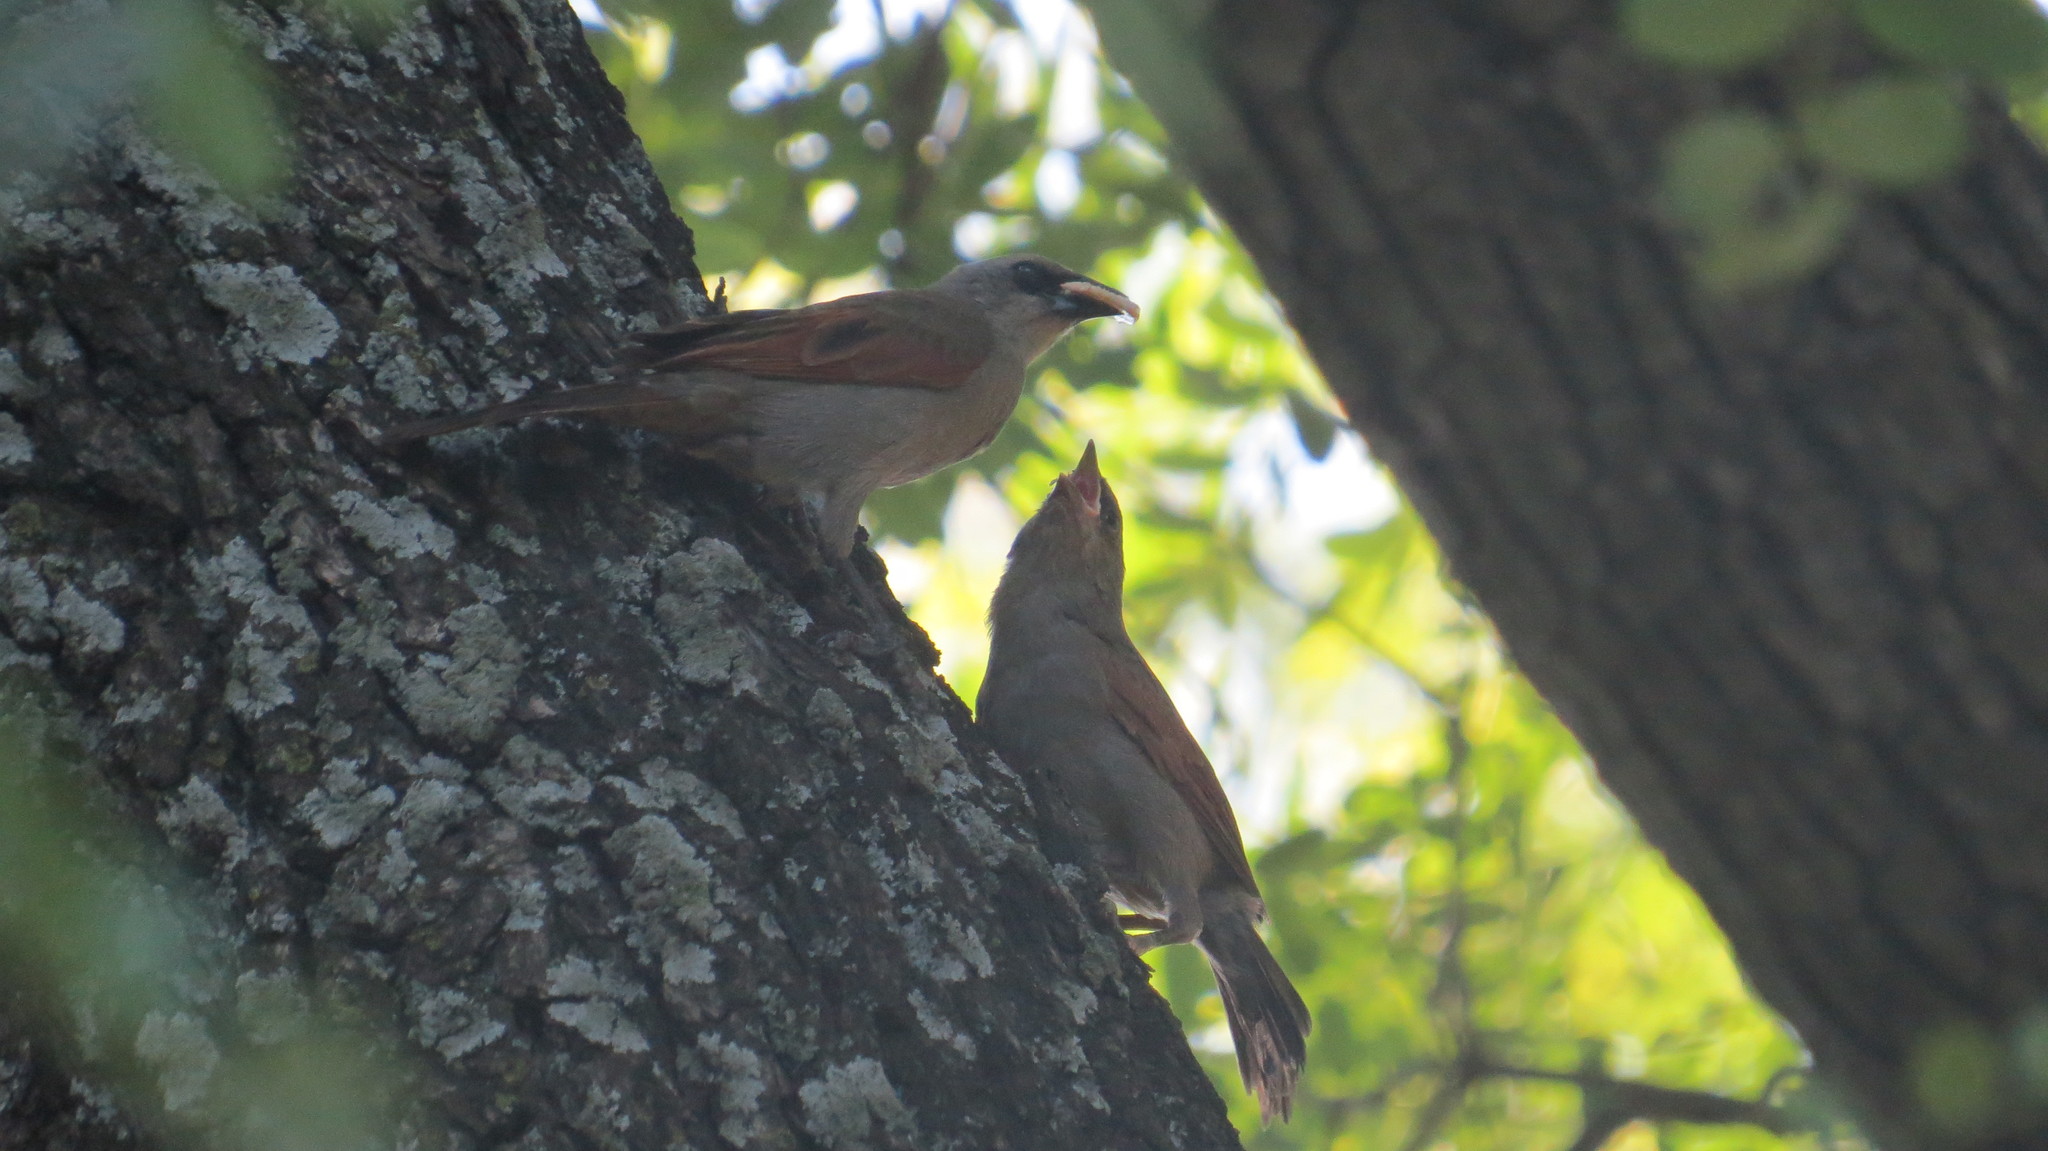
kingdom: Animalia
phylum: Chordata
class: Aves
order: Passeriformes
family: Icteridae
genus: Agelaioides
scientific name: Agelaioides badius
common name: Baywing
